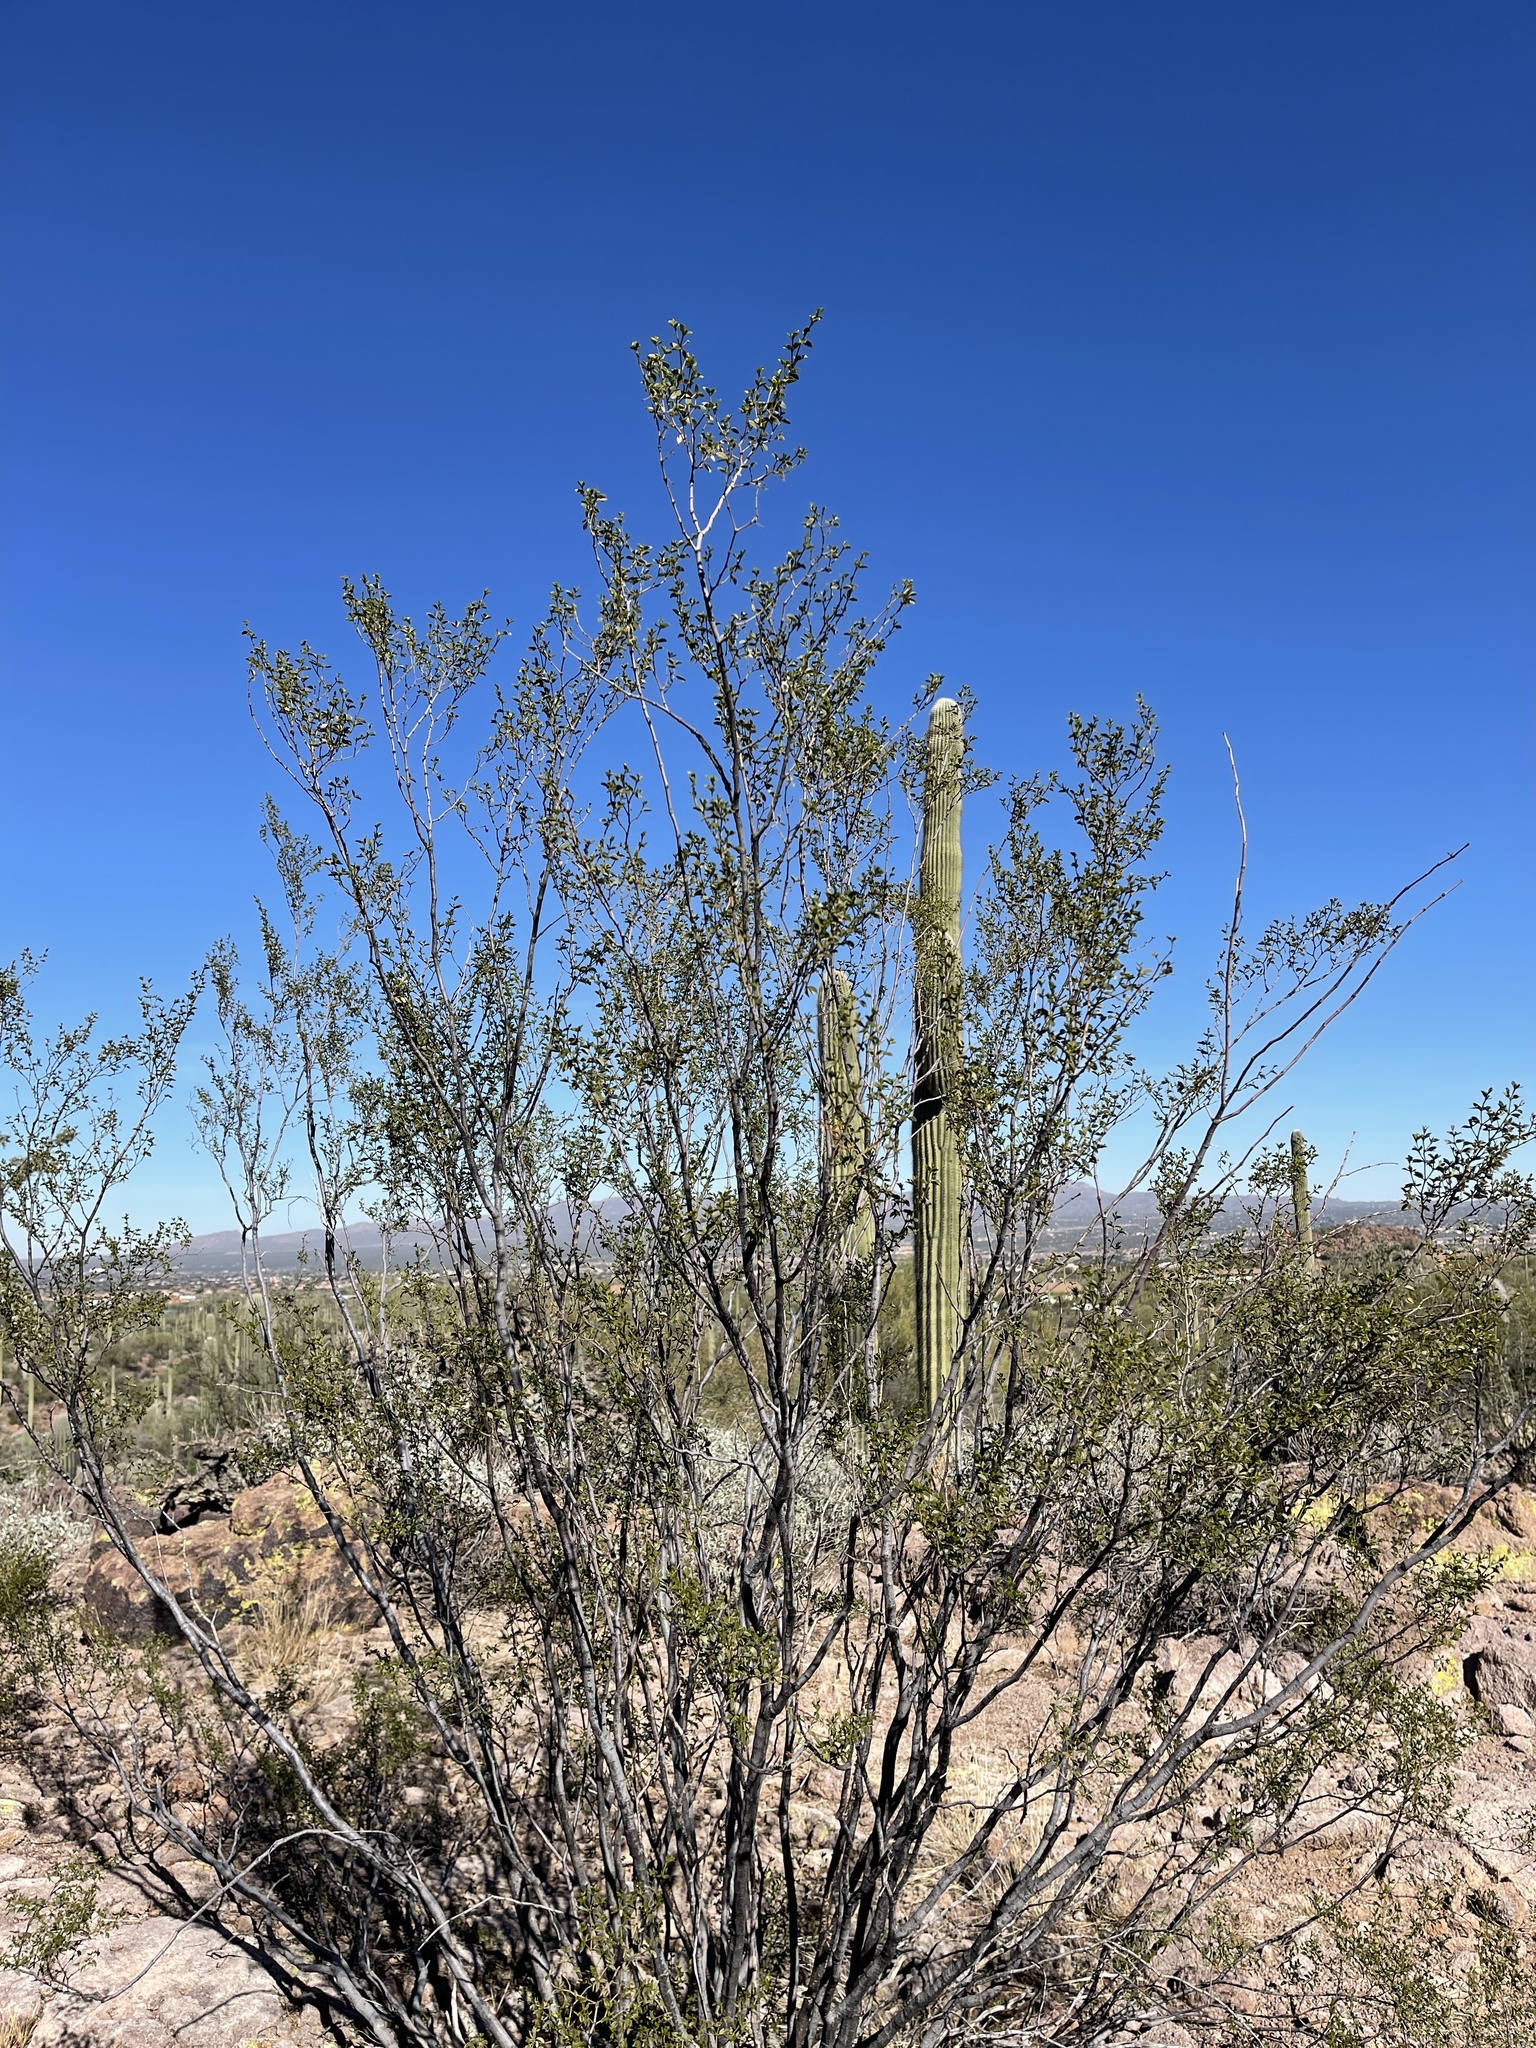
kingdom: Plantae
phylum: Tracheophyta
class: Magnoliopsida
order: Zygophyllales
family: Zygophyllaceae
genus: Larrea
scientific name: Larrea tridentata
